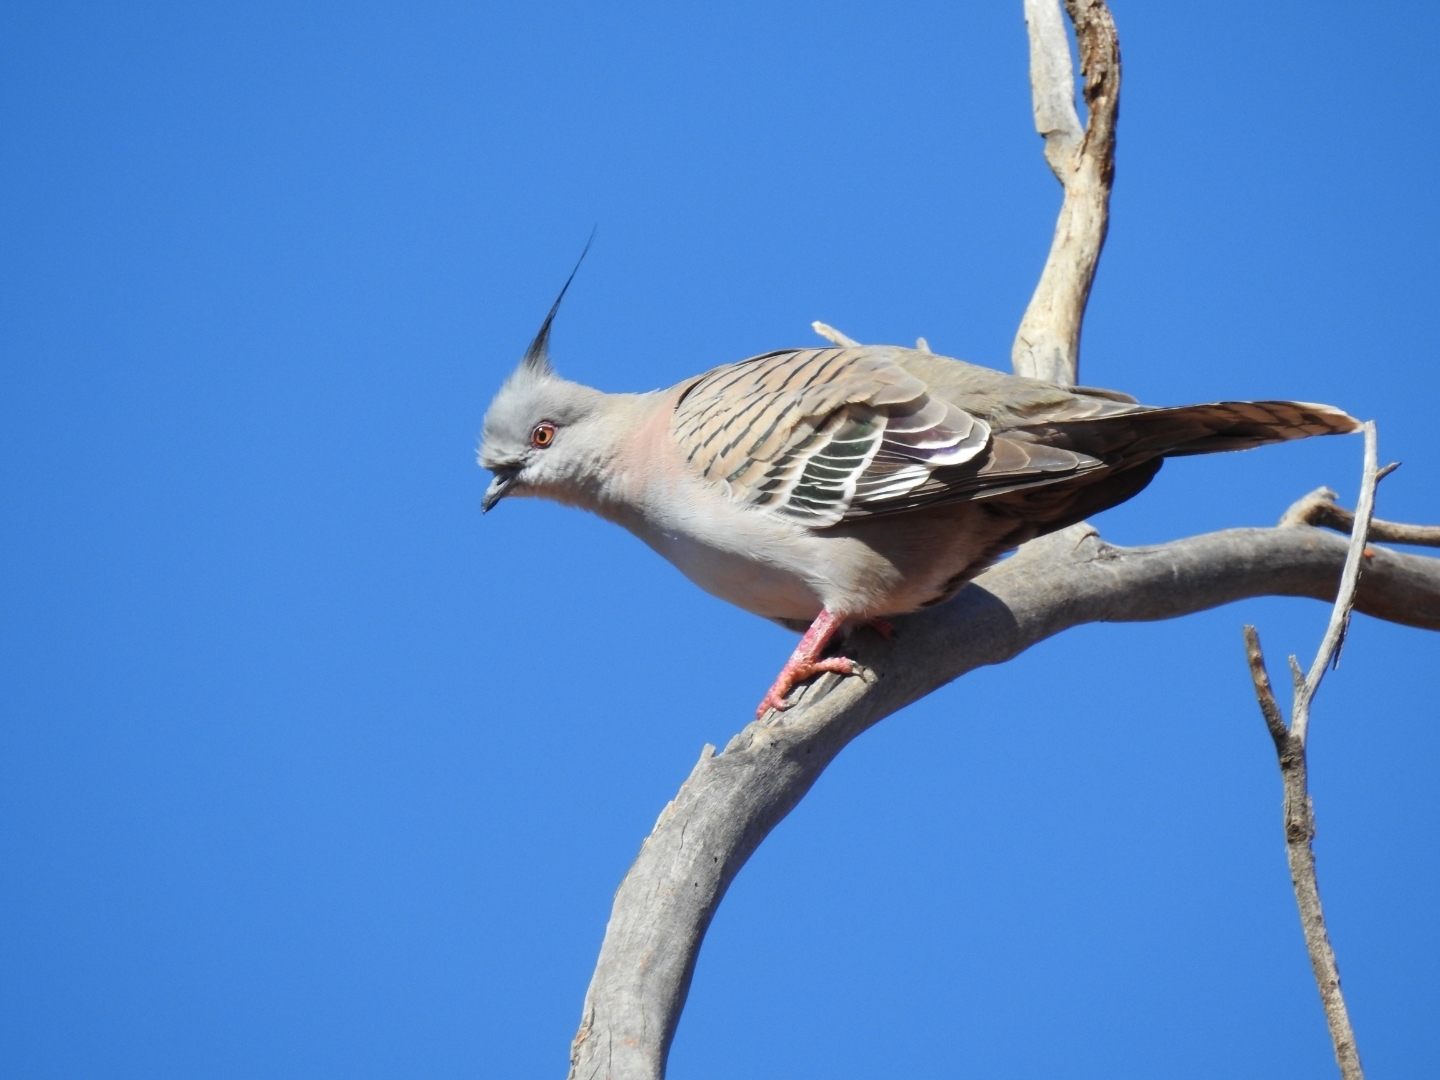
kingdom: Animalia
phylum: Chordata
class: Aves
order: Columbiformes
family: Columbidae
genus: Ocyphaps
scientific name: Ocyphaps lophotes
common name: Crested pigeon
